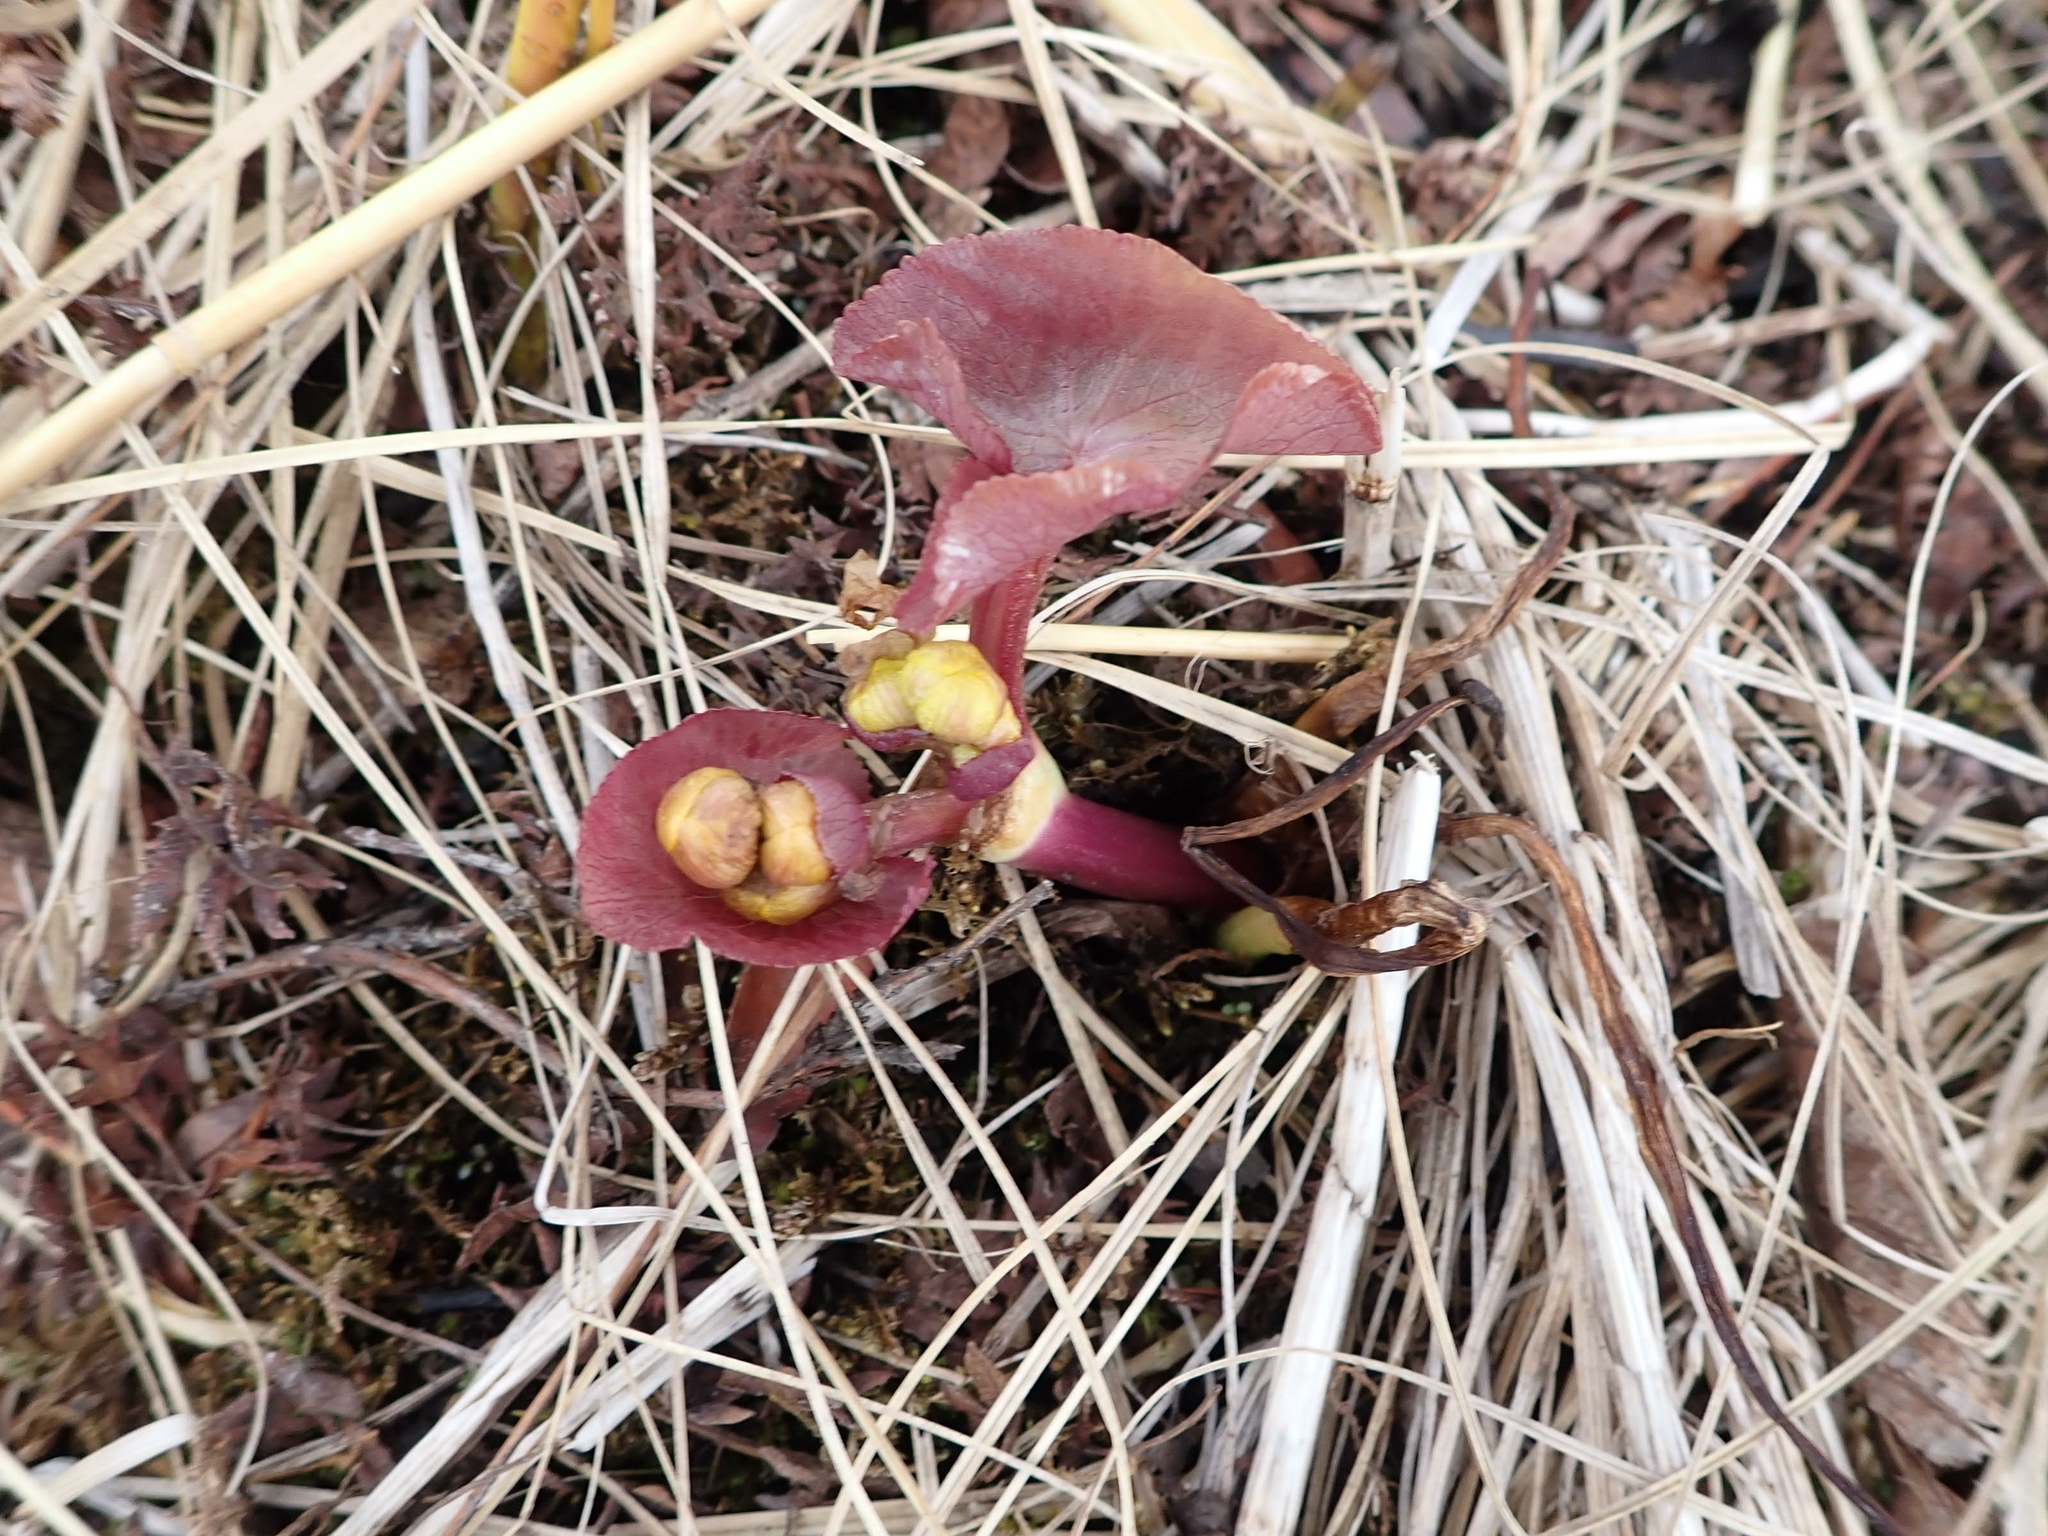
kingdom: Plantae
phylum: Tracheophyta
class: Magnoliopsida
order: Ranunculales
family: Ranunculaceae
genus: Caltha
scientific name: Caltha palustris
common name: Marsh marigold
